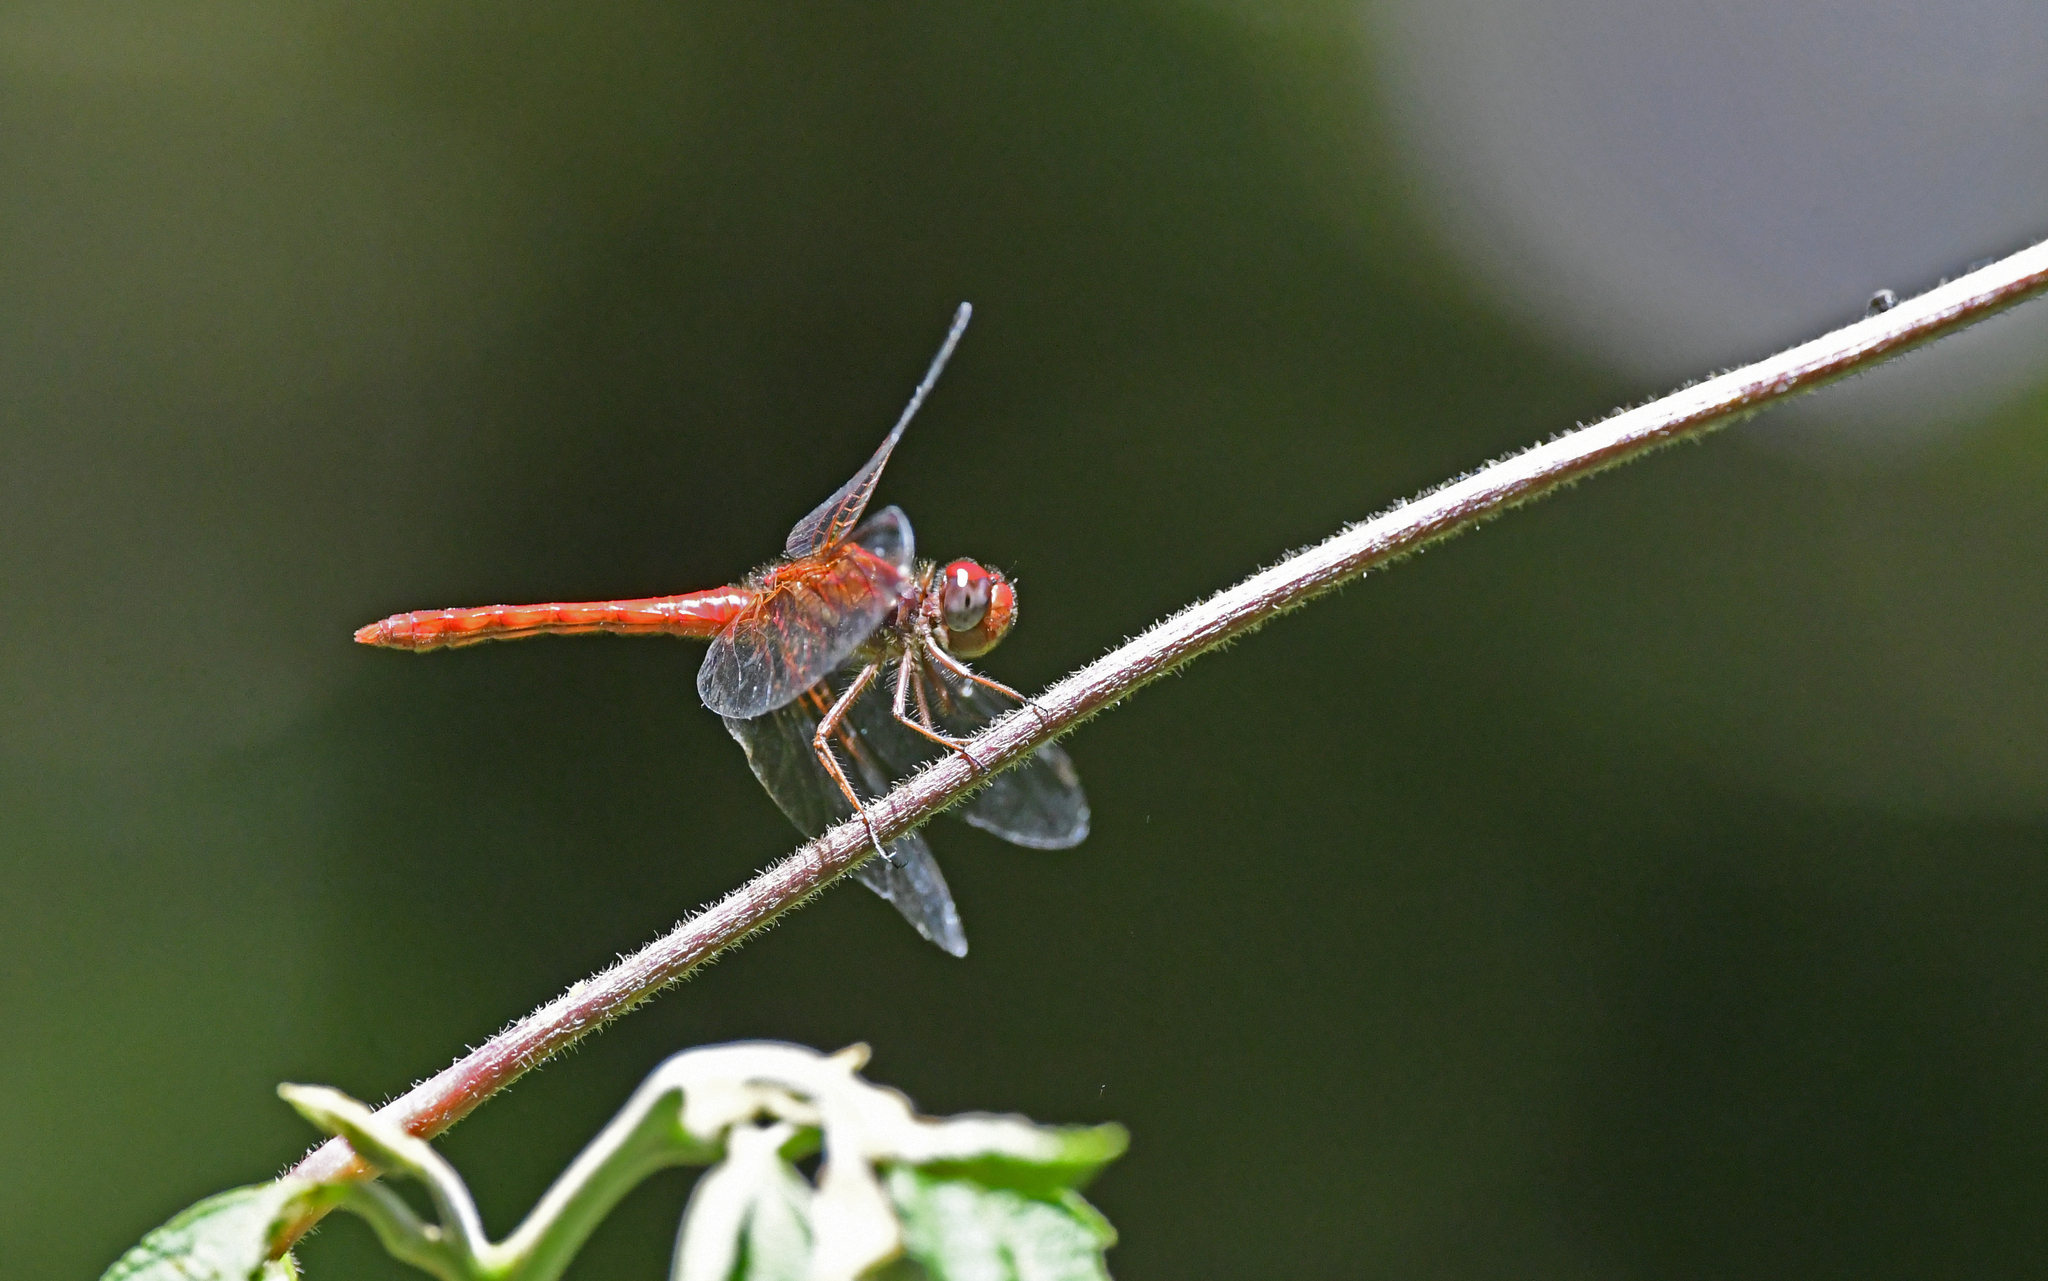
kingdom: Animalia
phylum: Arthropoda
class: Insecta
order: Odonata
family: Libellulidae
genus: Sympetrum
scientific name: Sympetrum gilvum
